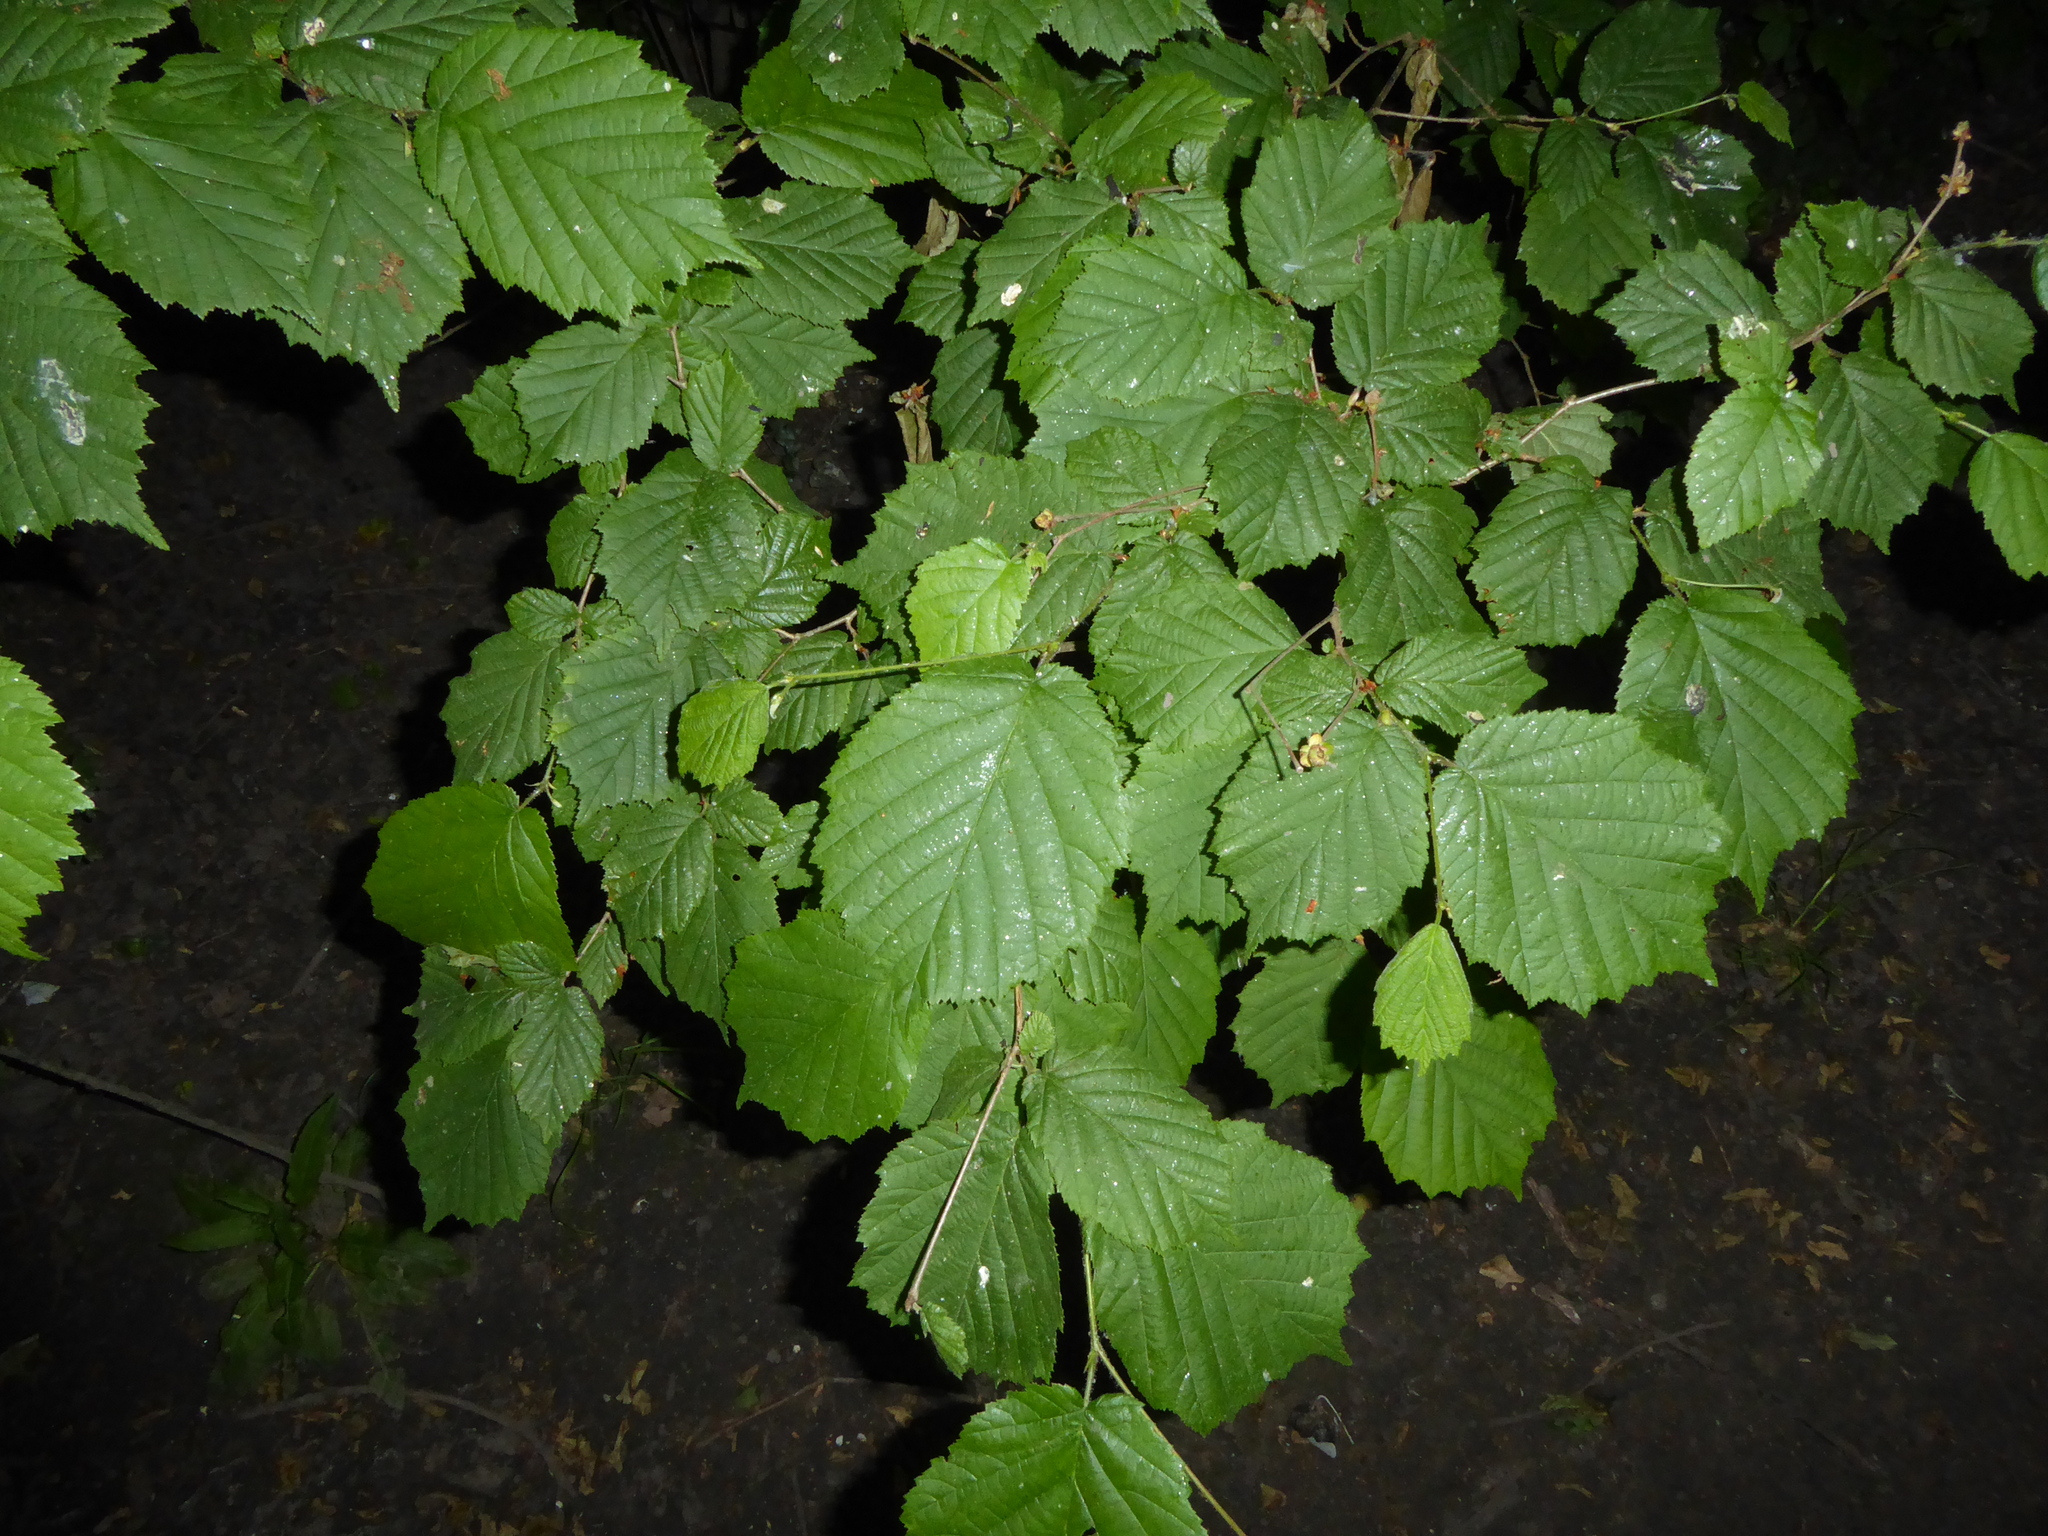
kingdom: Plantae
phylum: Tracheophyta
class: Magnoliopsida
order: Fagales
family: Betulaceae
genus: Corylus
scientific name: Corylus avellana
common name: European hazel
